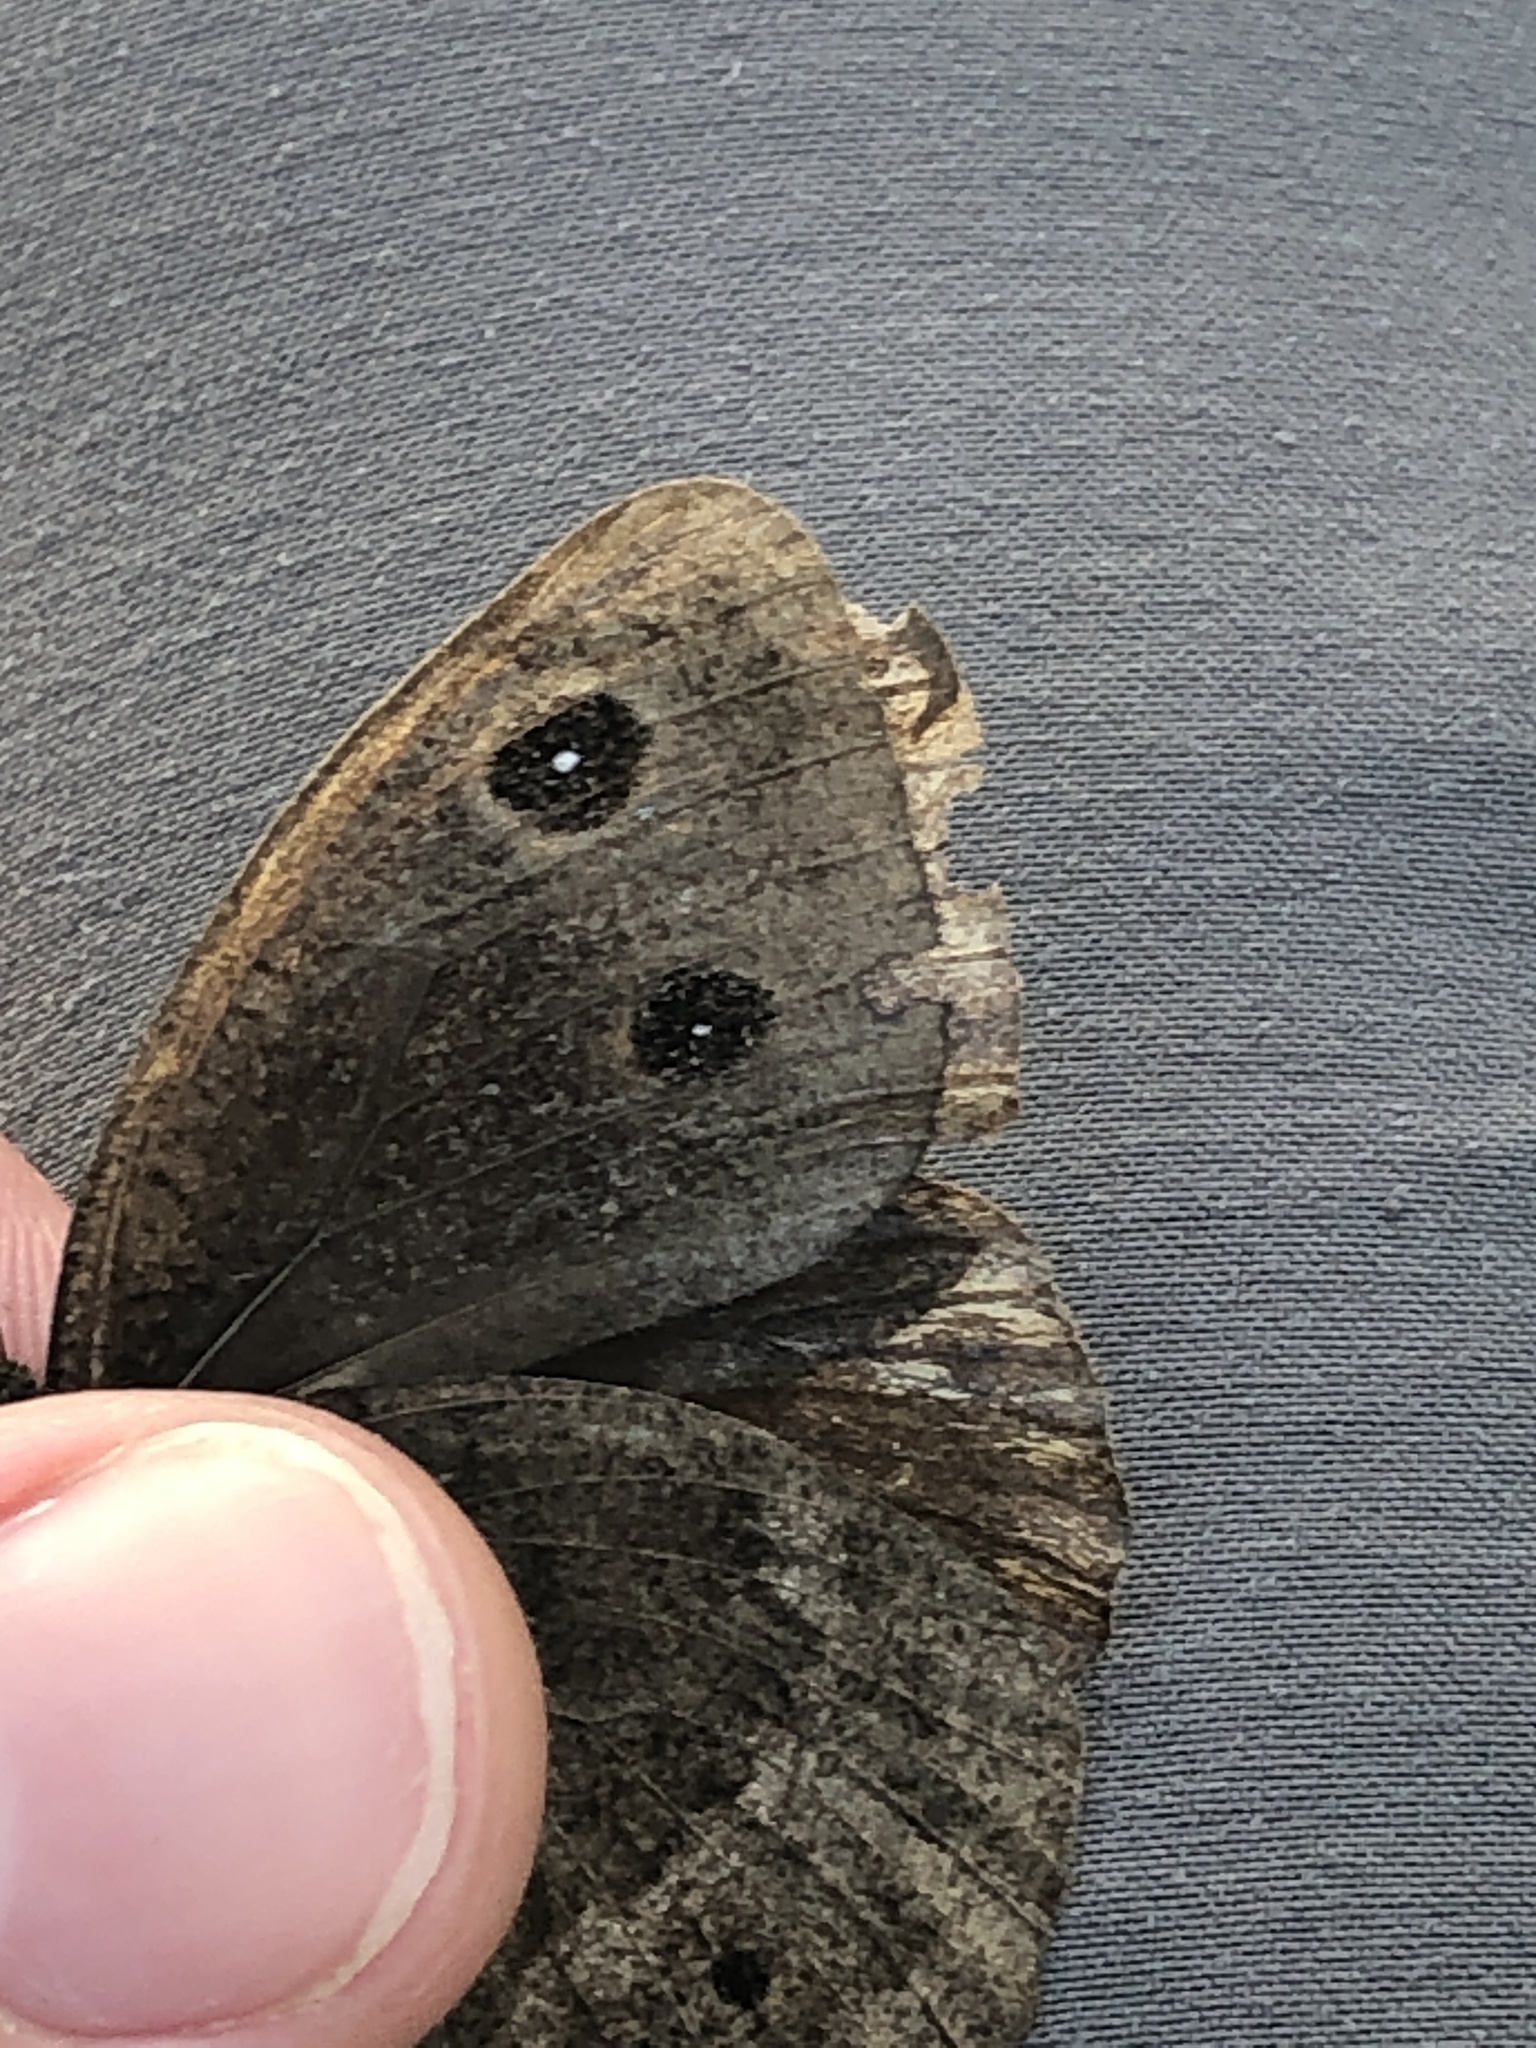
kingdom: Animalia
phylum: Arthropoda
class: Insecta
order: Lepidoptera
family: Nymphalidae
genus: Satyrus
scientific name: Satyrus ferula
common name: Great sooty satyr
